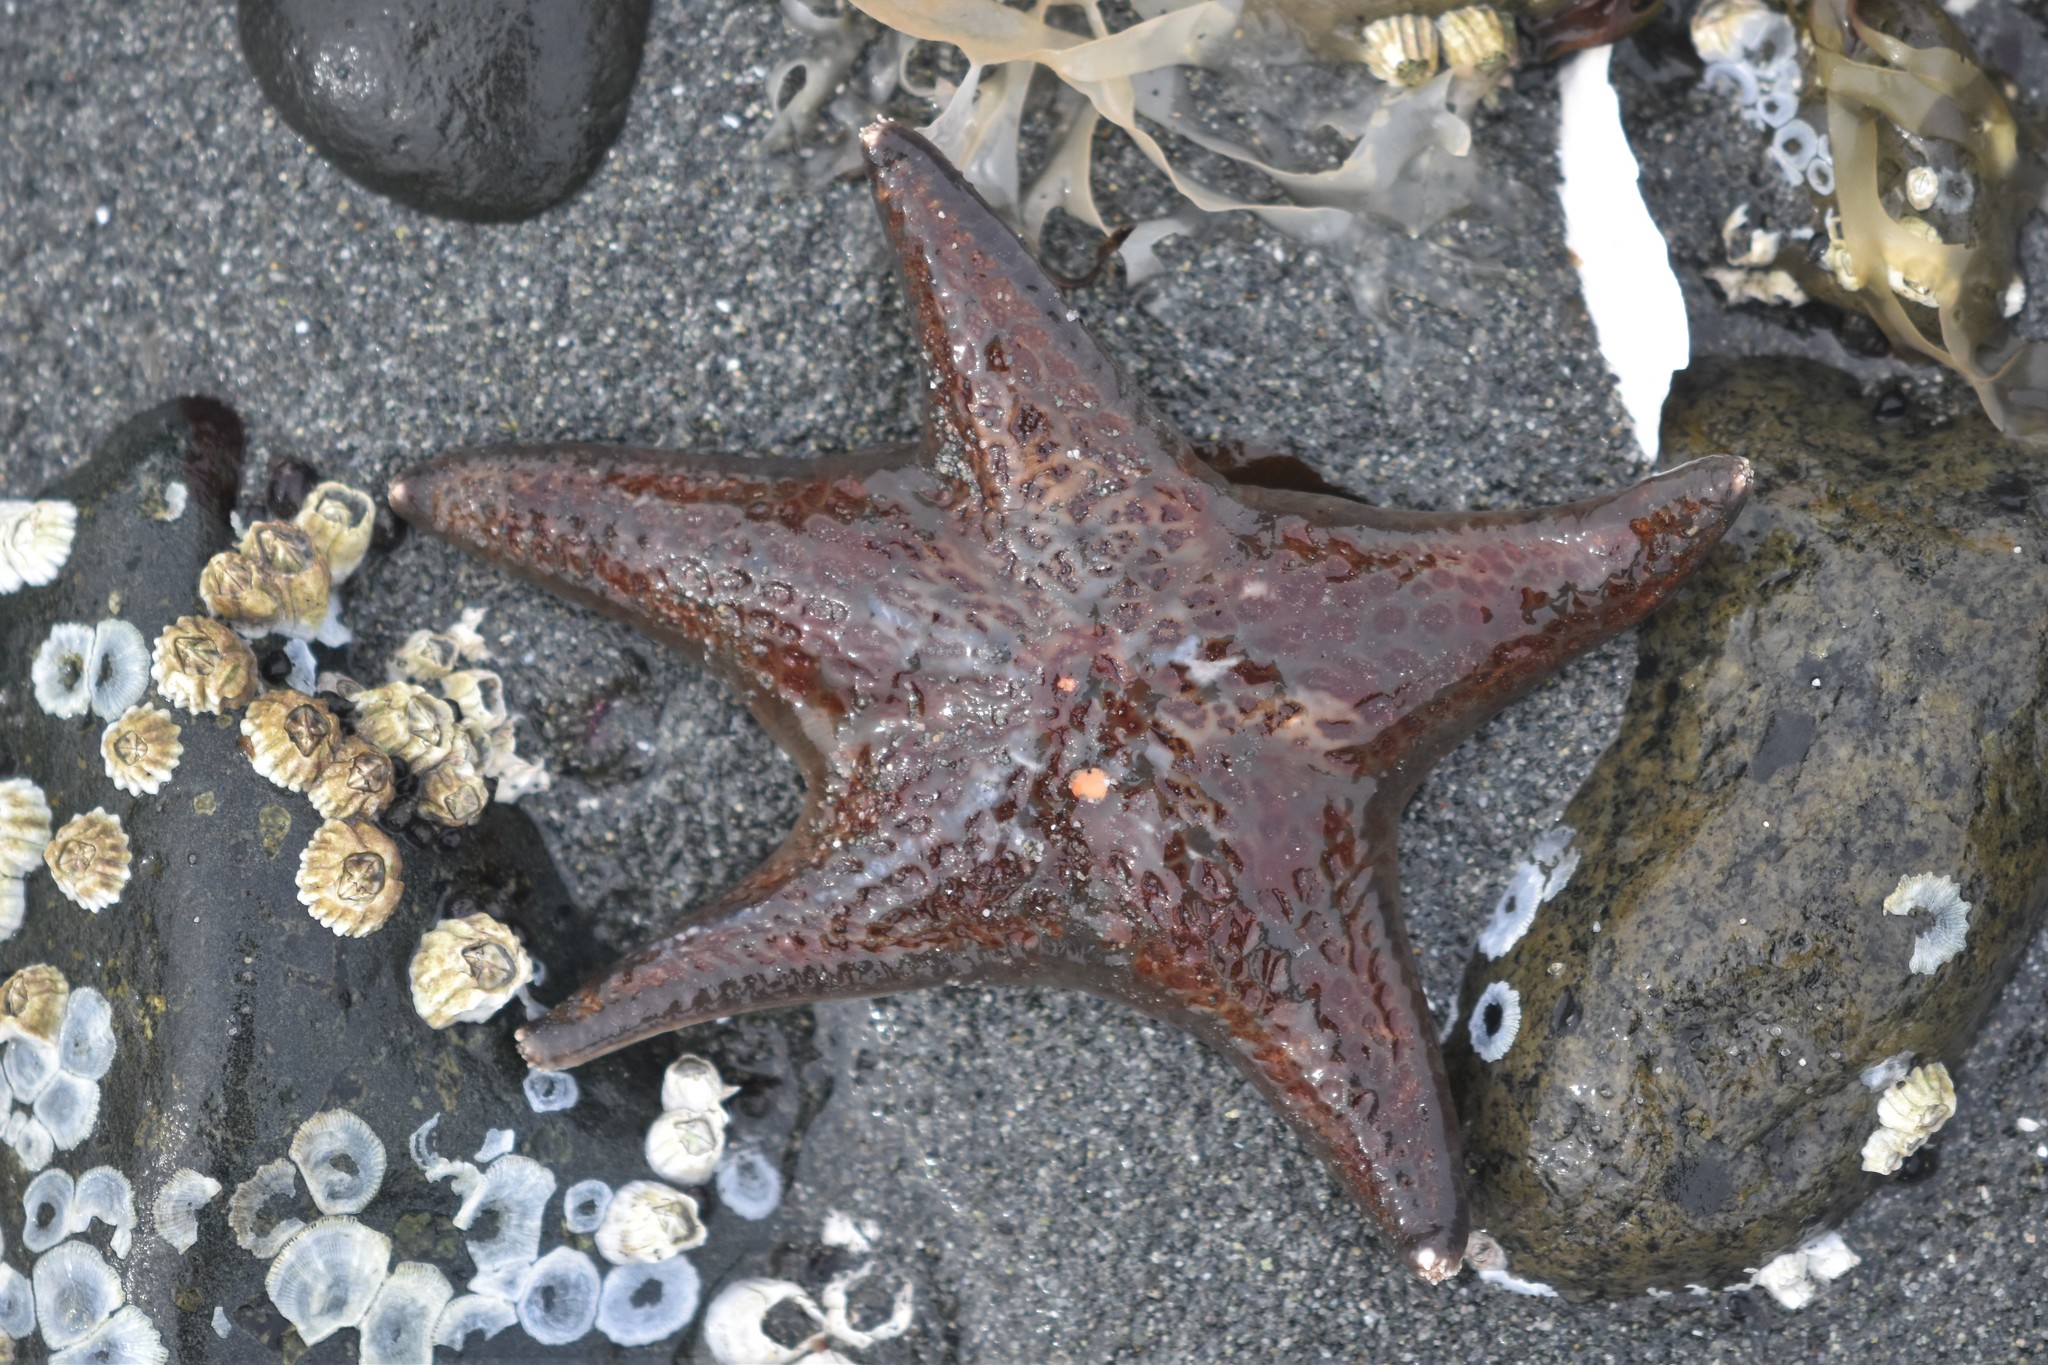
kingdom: Animalia
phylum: Echinodermata
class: Asteroidea
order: Valvatida
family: Asteropseidae
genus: Dermasterias
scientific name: Dermasterias imbricata
